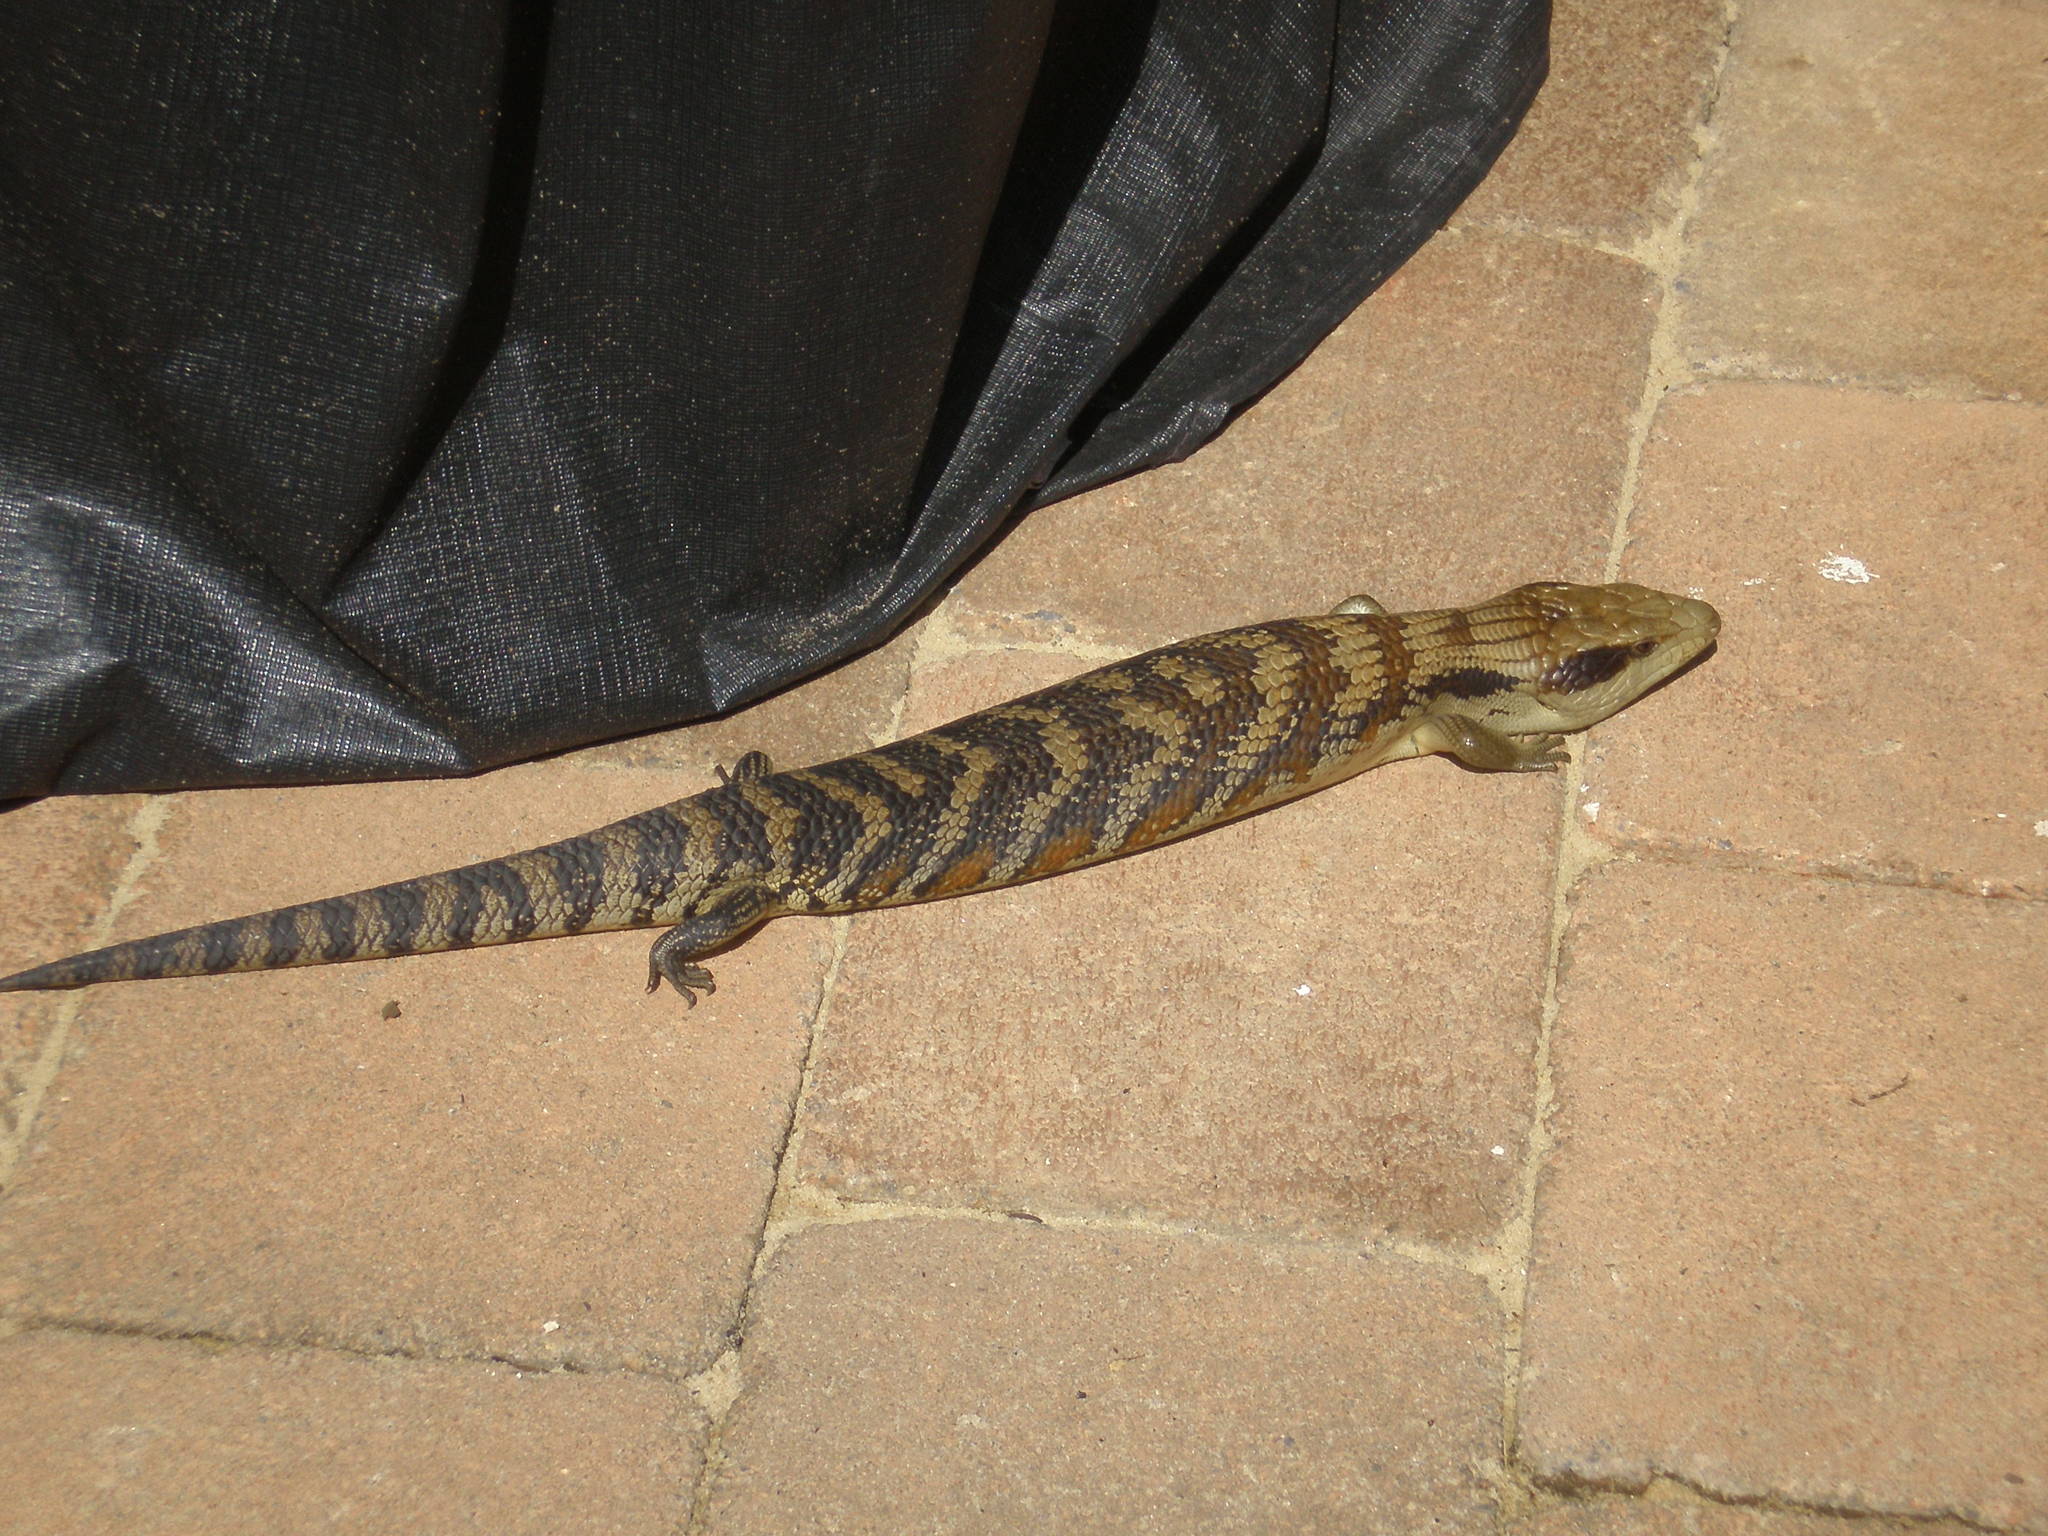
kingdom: Animalia
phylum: Chordata
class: Squamata
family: Scincidae
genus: Tiliqua
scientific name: Tiliqua scincoides
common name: Common bluetongue
